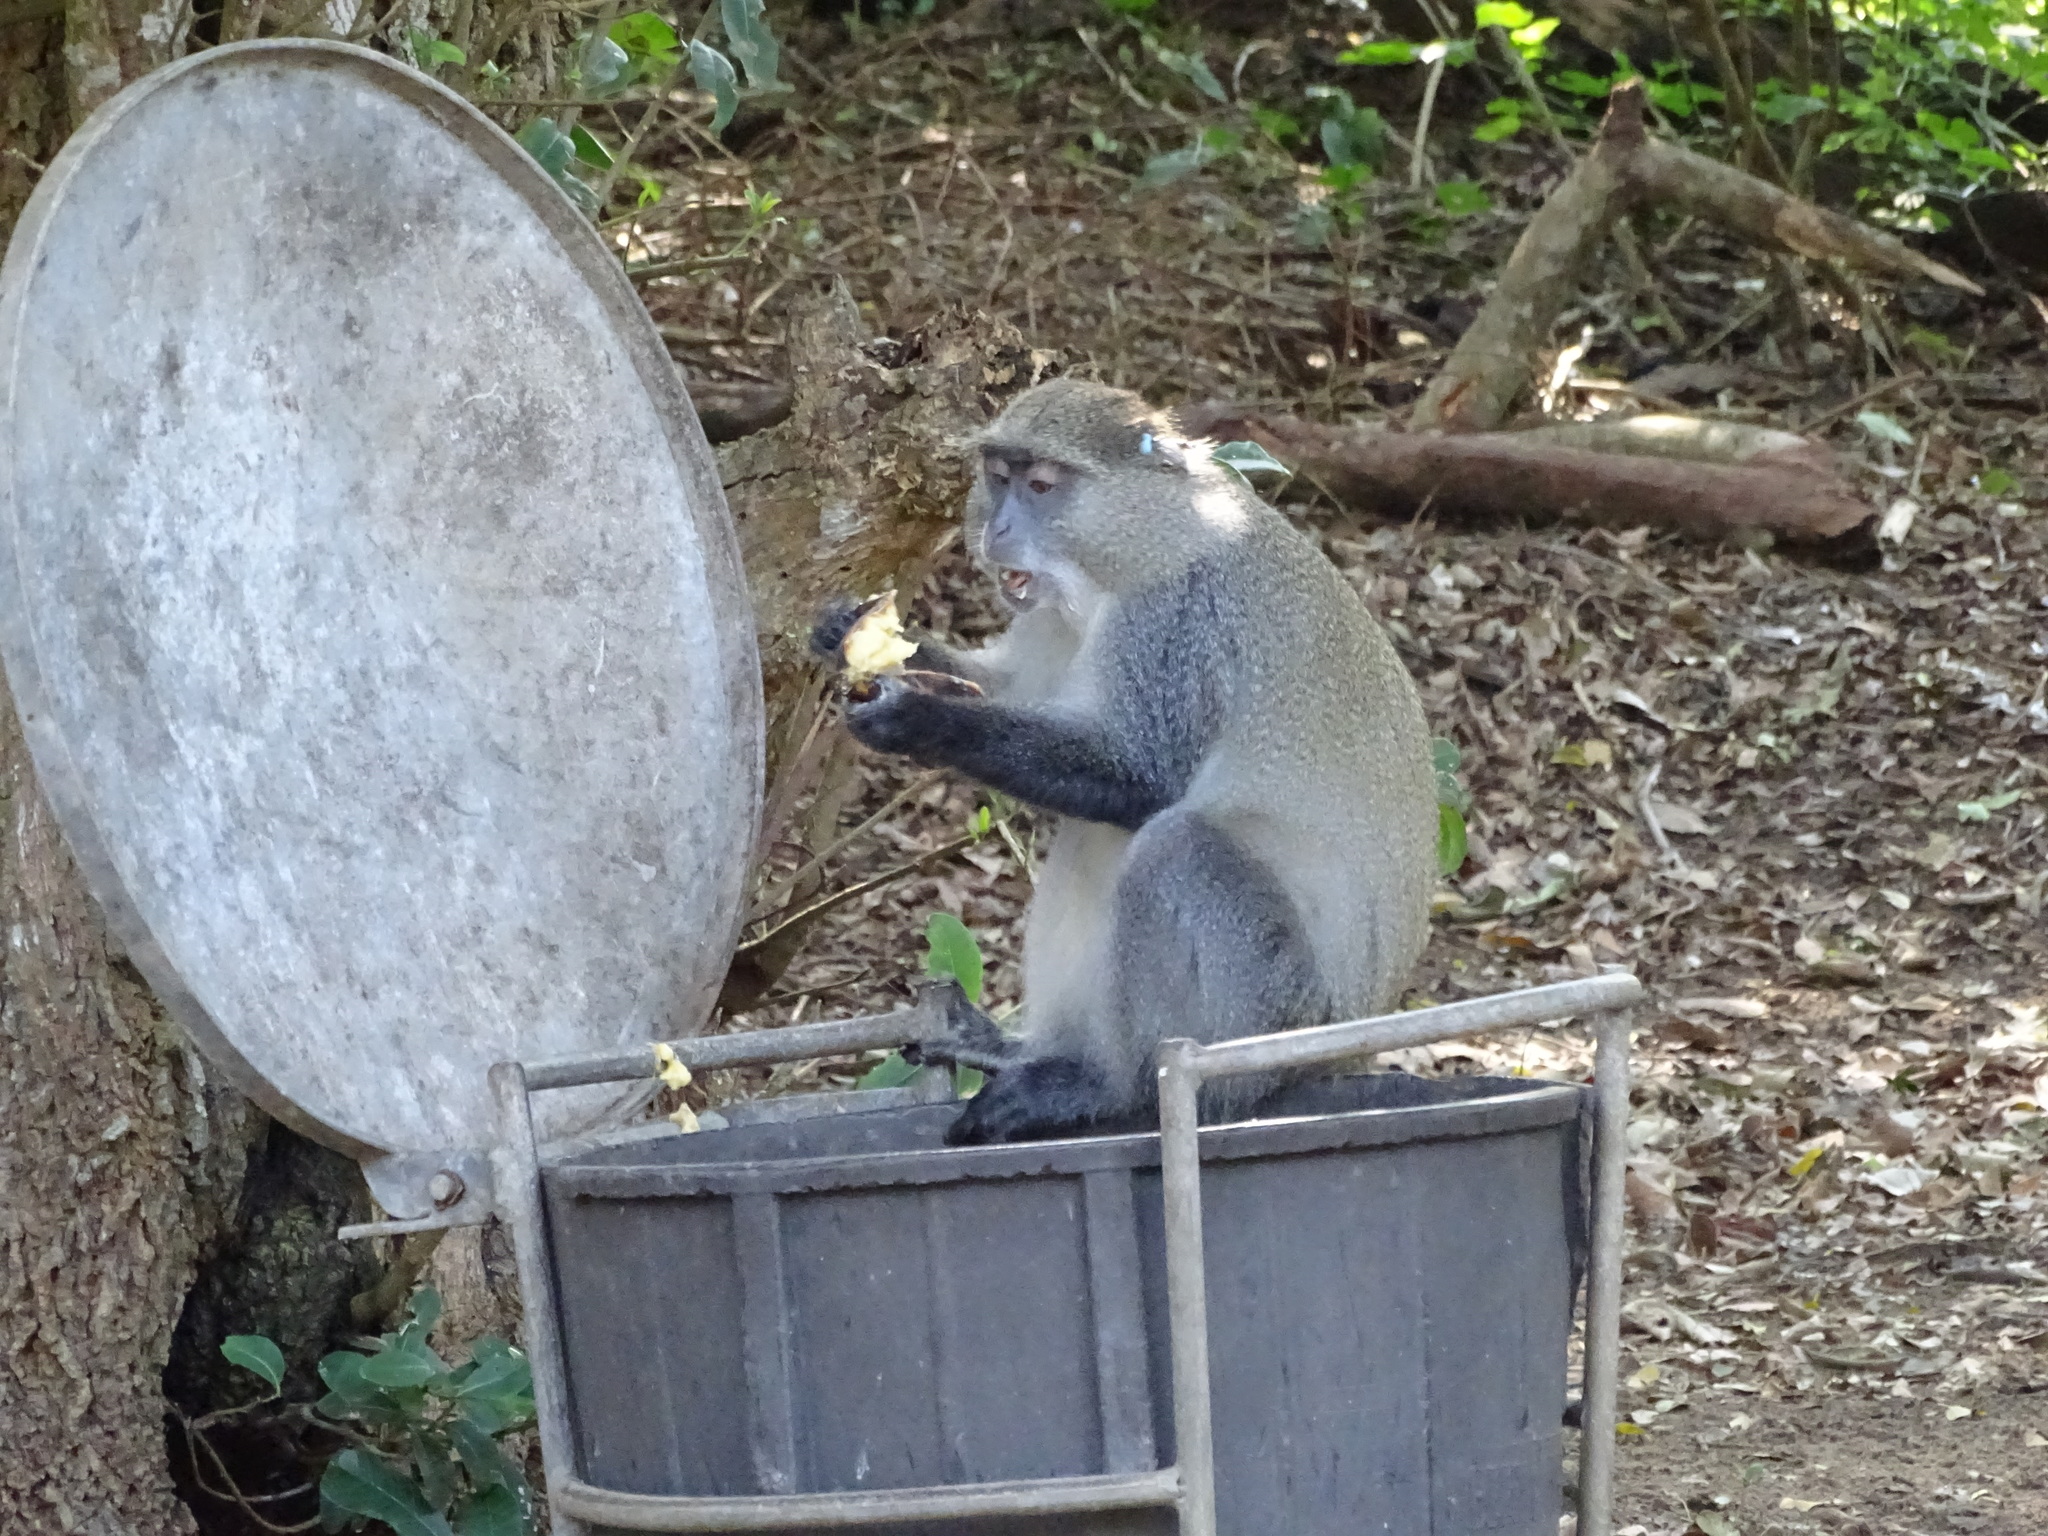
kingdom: Animalia
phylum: Chordata
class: Mammalia
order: Primates
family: Cercopithecidae
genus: Cercopithecus
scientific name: Cercopithecus mitis
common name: Blue monkey
